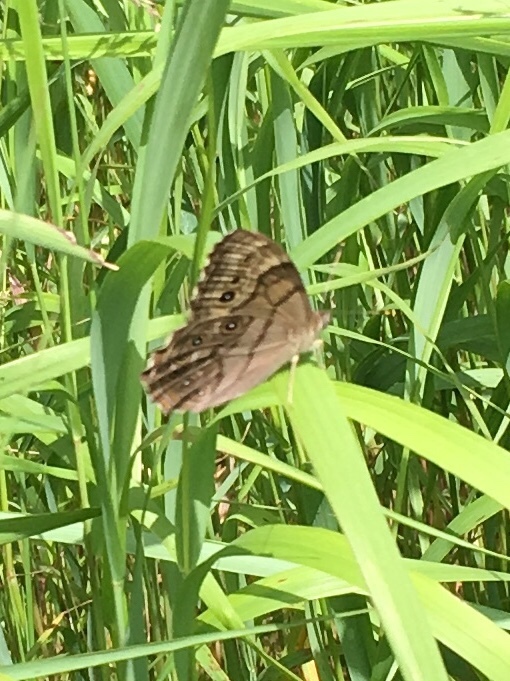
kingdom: Animalia
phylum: Arthropoda
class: Insecta
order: Lepidoptera
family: Nymphalidae
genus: Lethe
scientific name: Lethe anthedon
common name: Northern pearly-eye
